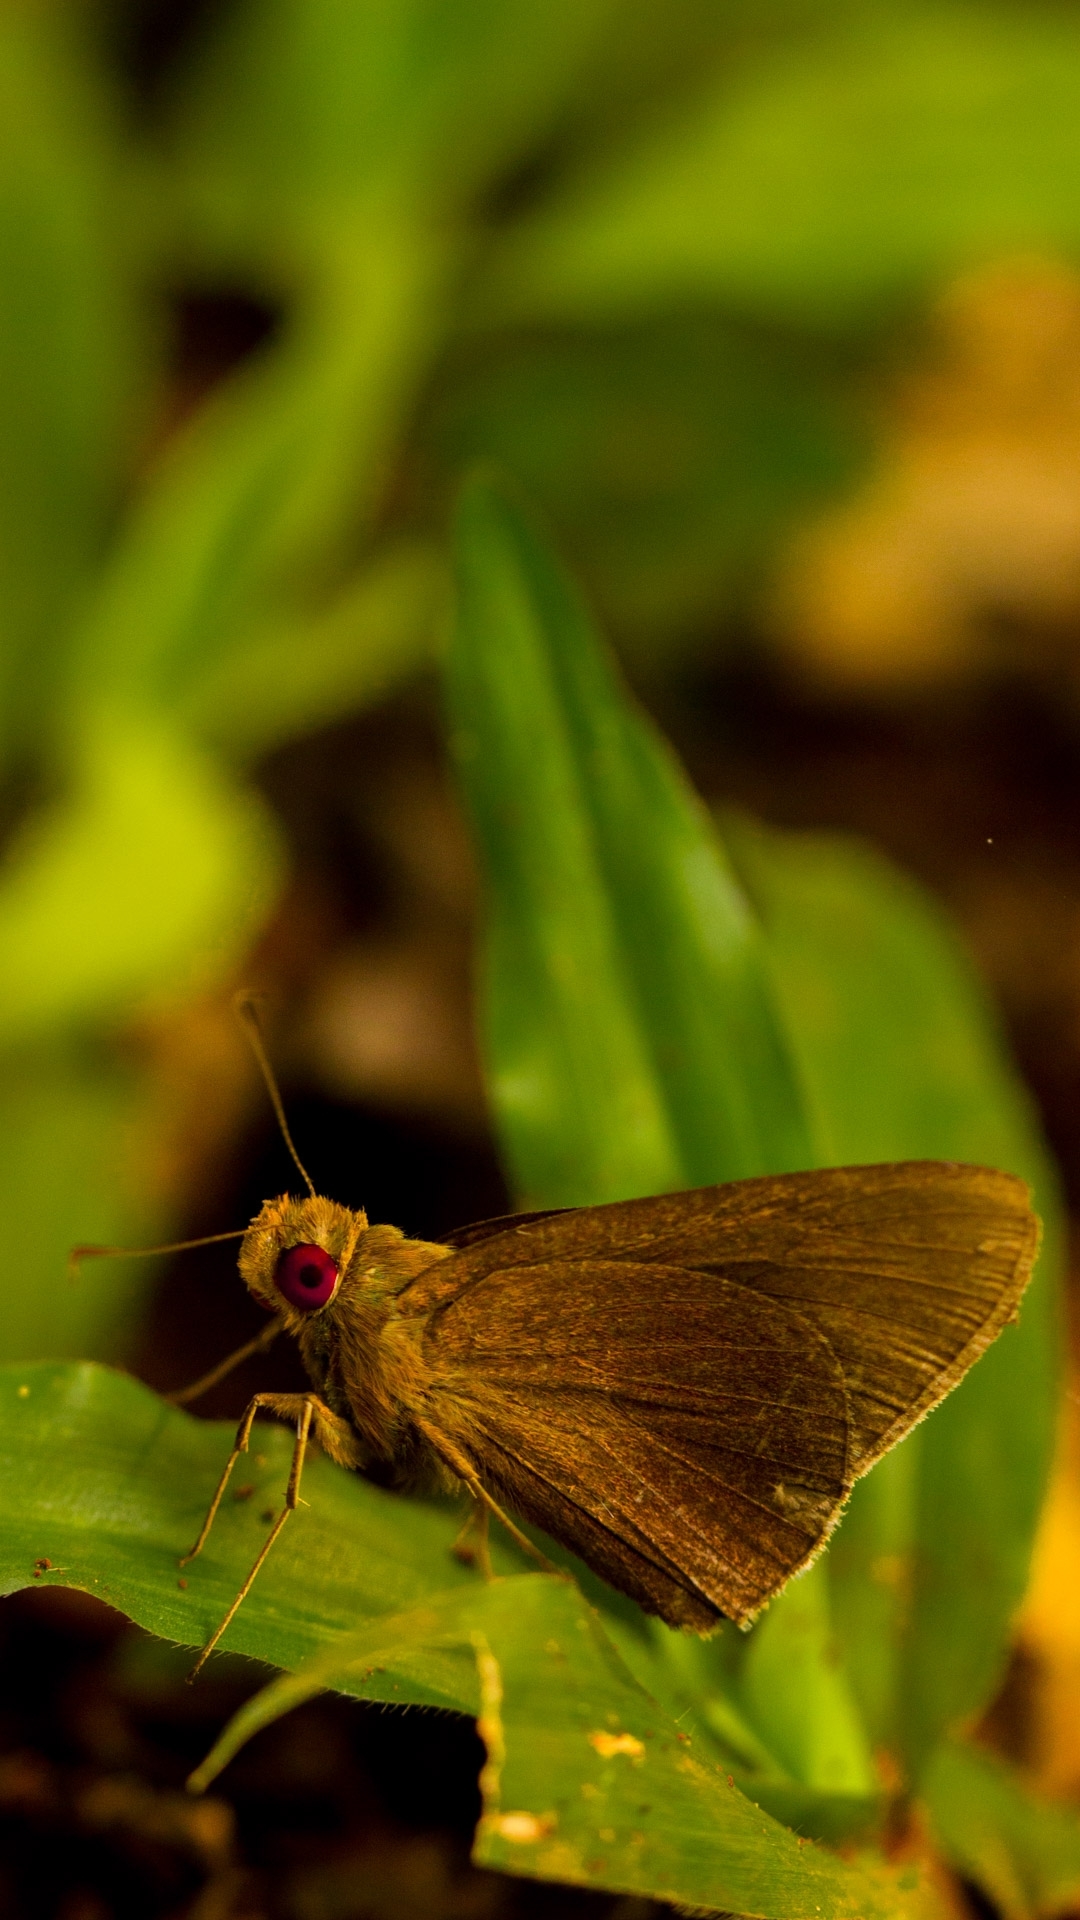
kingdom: Animalia
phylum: Arthropoda
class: Insecta
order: Lepidoptera
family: Hesperiidae
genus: Matapa
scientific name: Matapa aria
